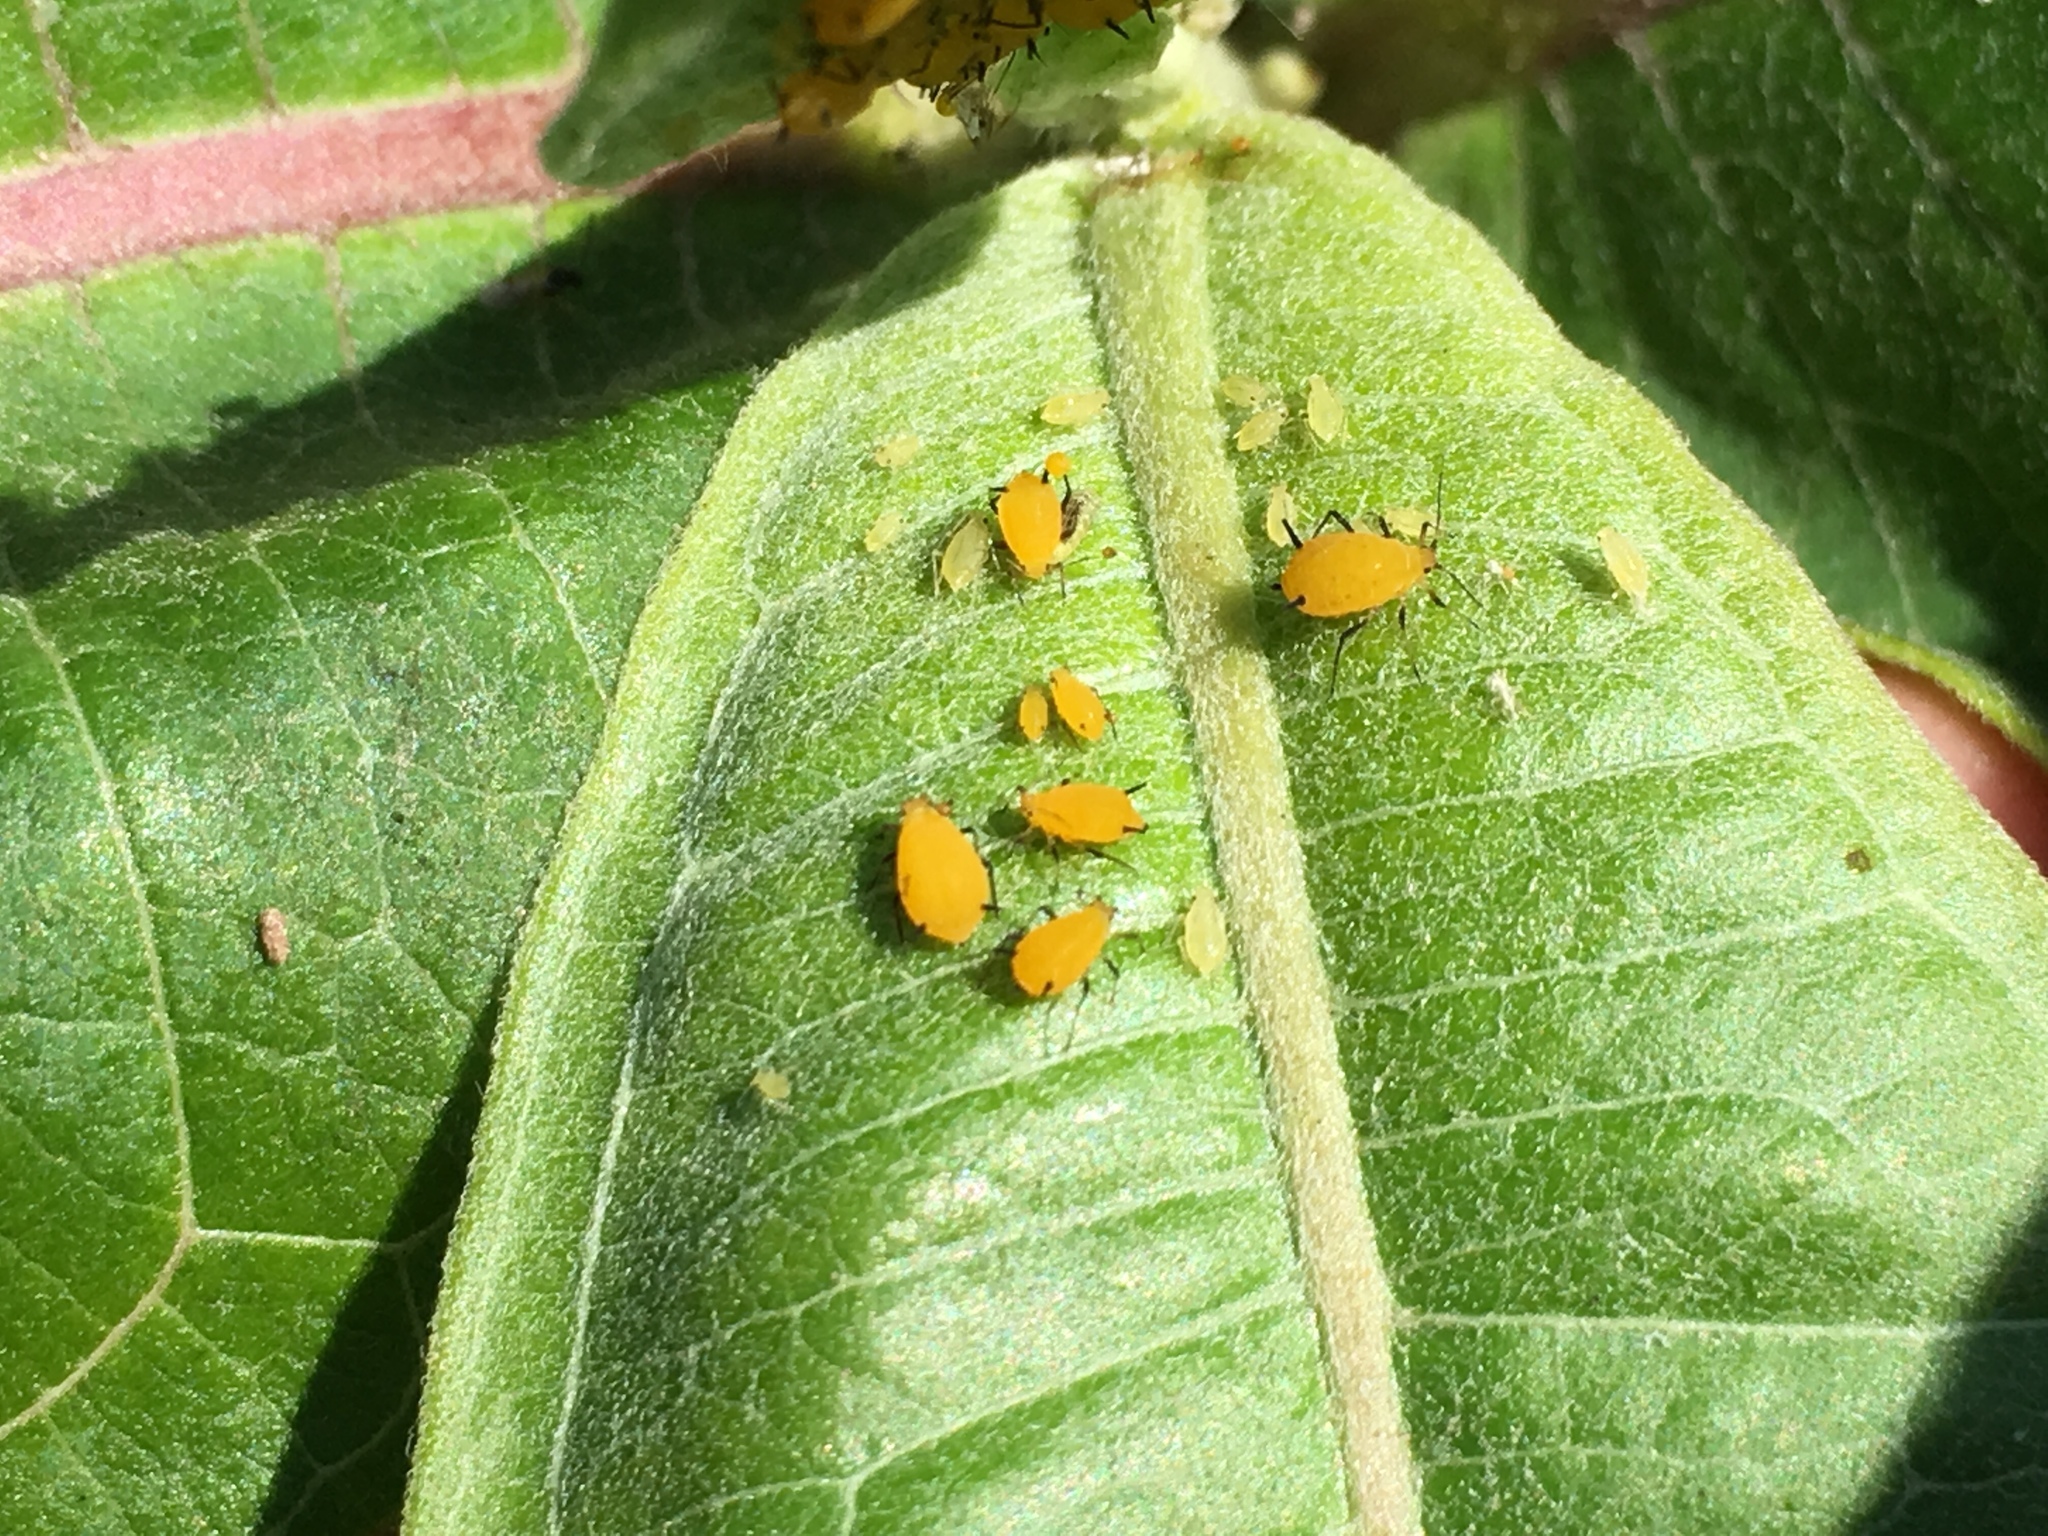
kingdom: Animalia
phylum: Arthropoda
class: Insecta
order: Hemiptera
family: Aphididae
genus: Aphis
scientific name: Aphis nerii
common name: Oleander aphid
